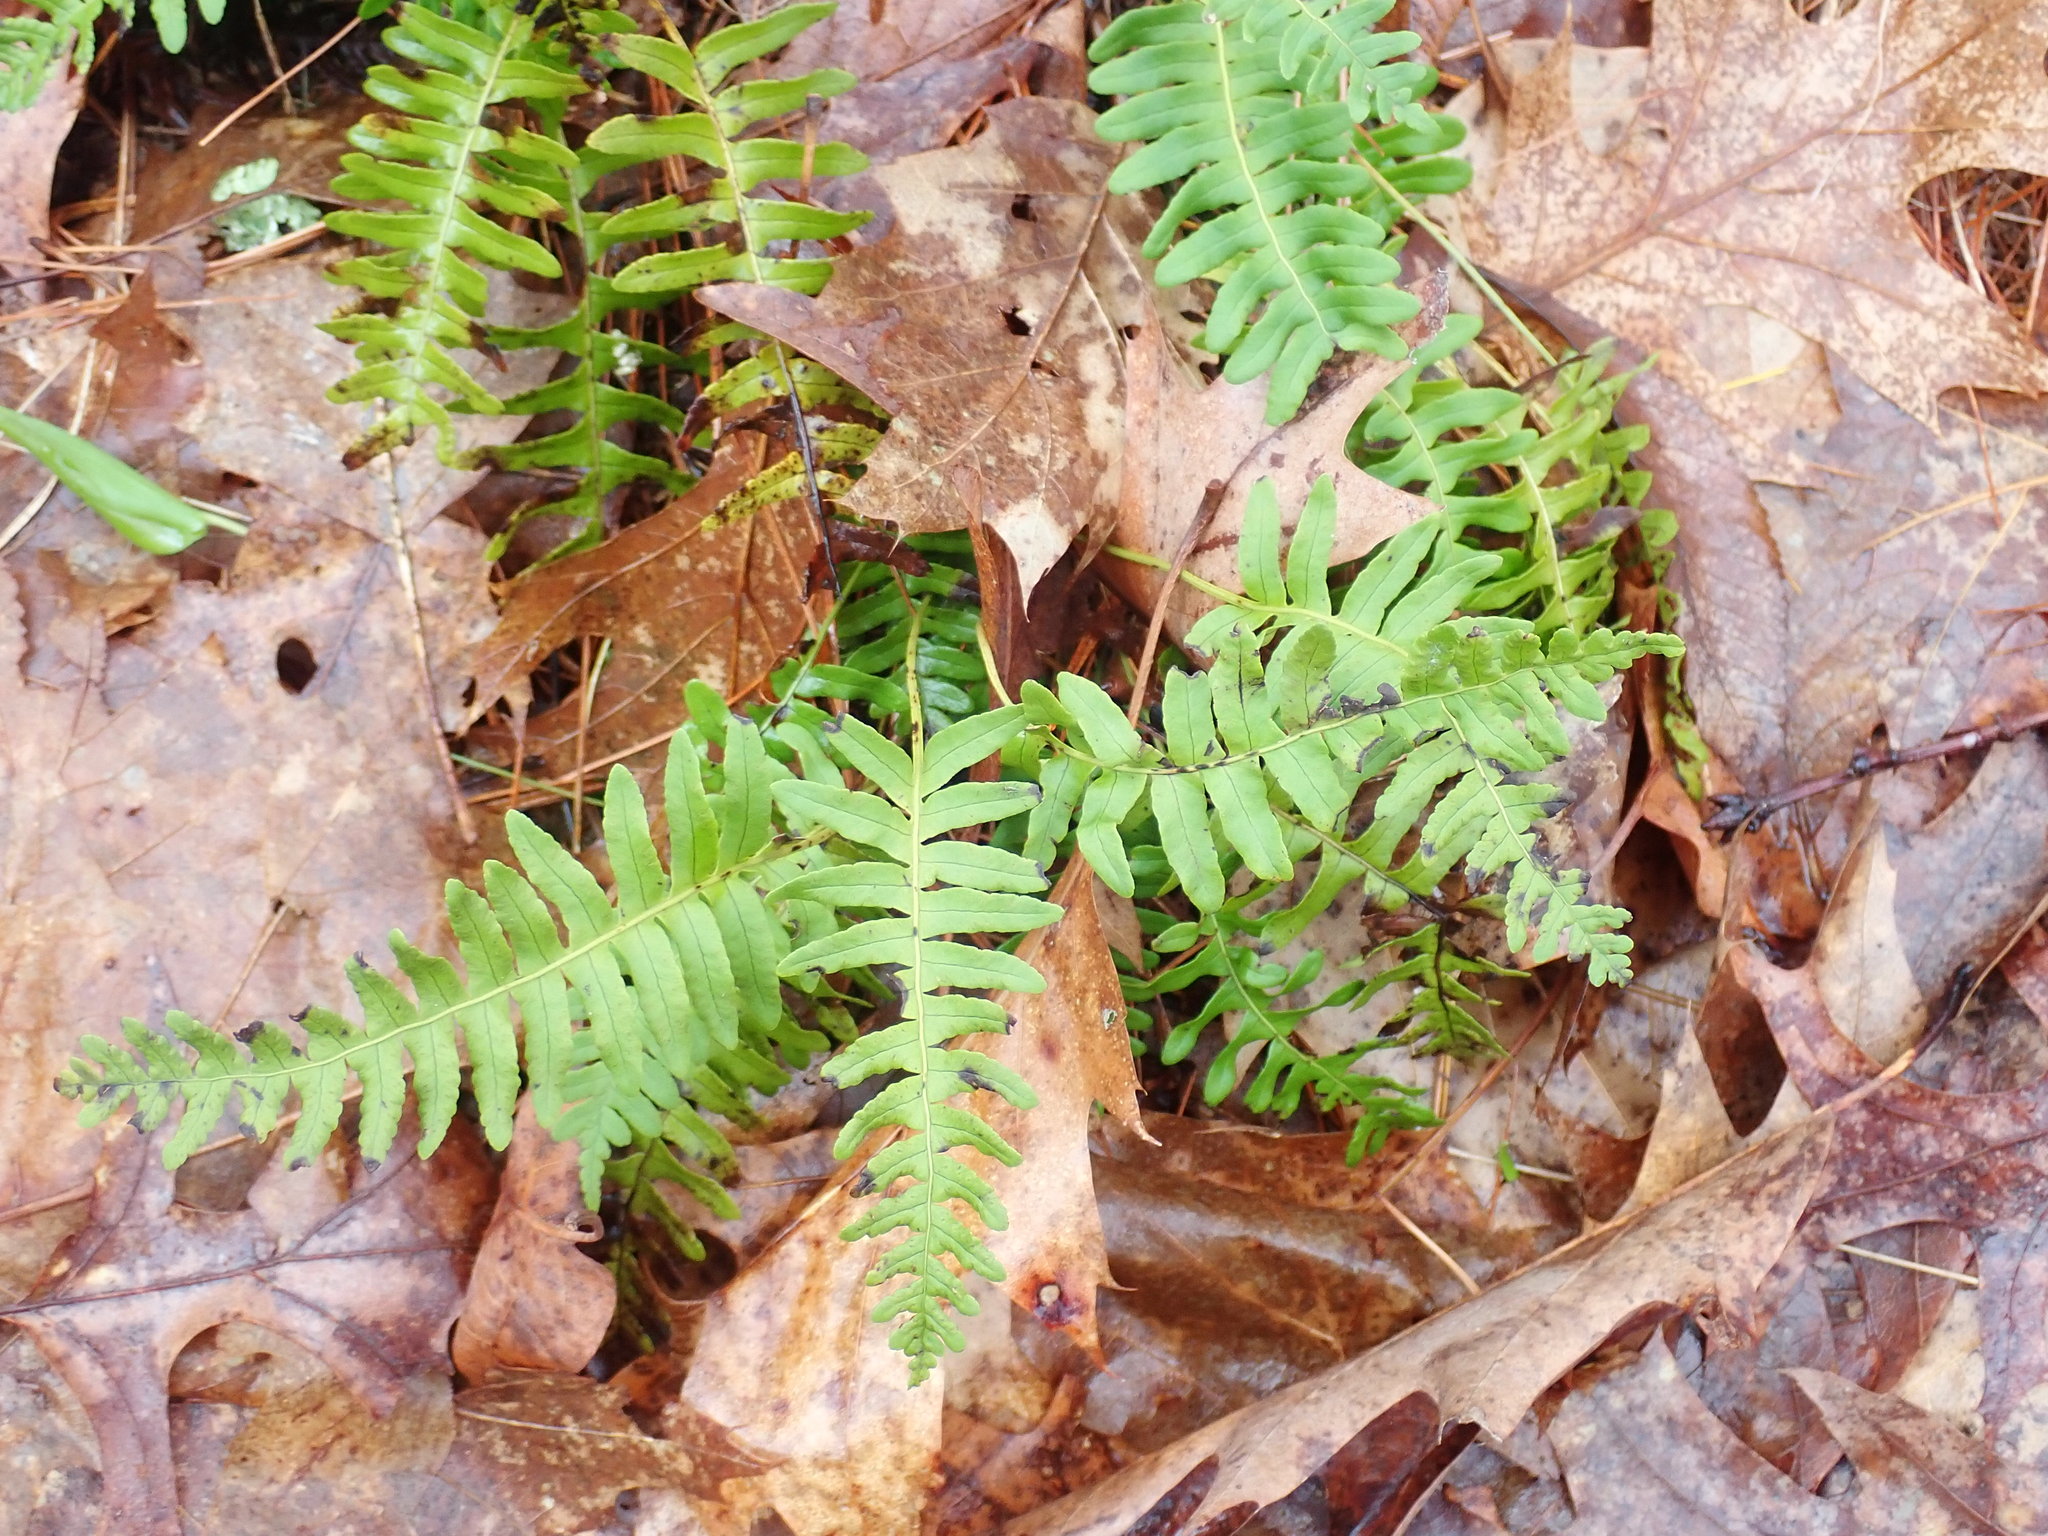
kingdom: Plantae
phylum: Tracheophyta
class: Polypodiopsida
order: Polypodiales
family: Polypodiaceae
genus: Polypodium
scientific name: Polypodium
